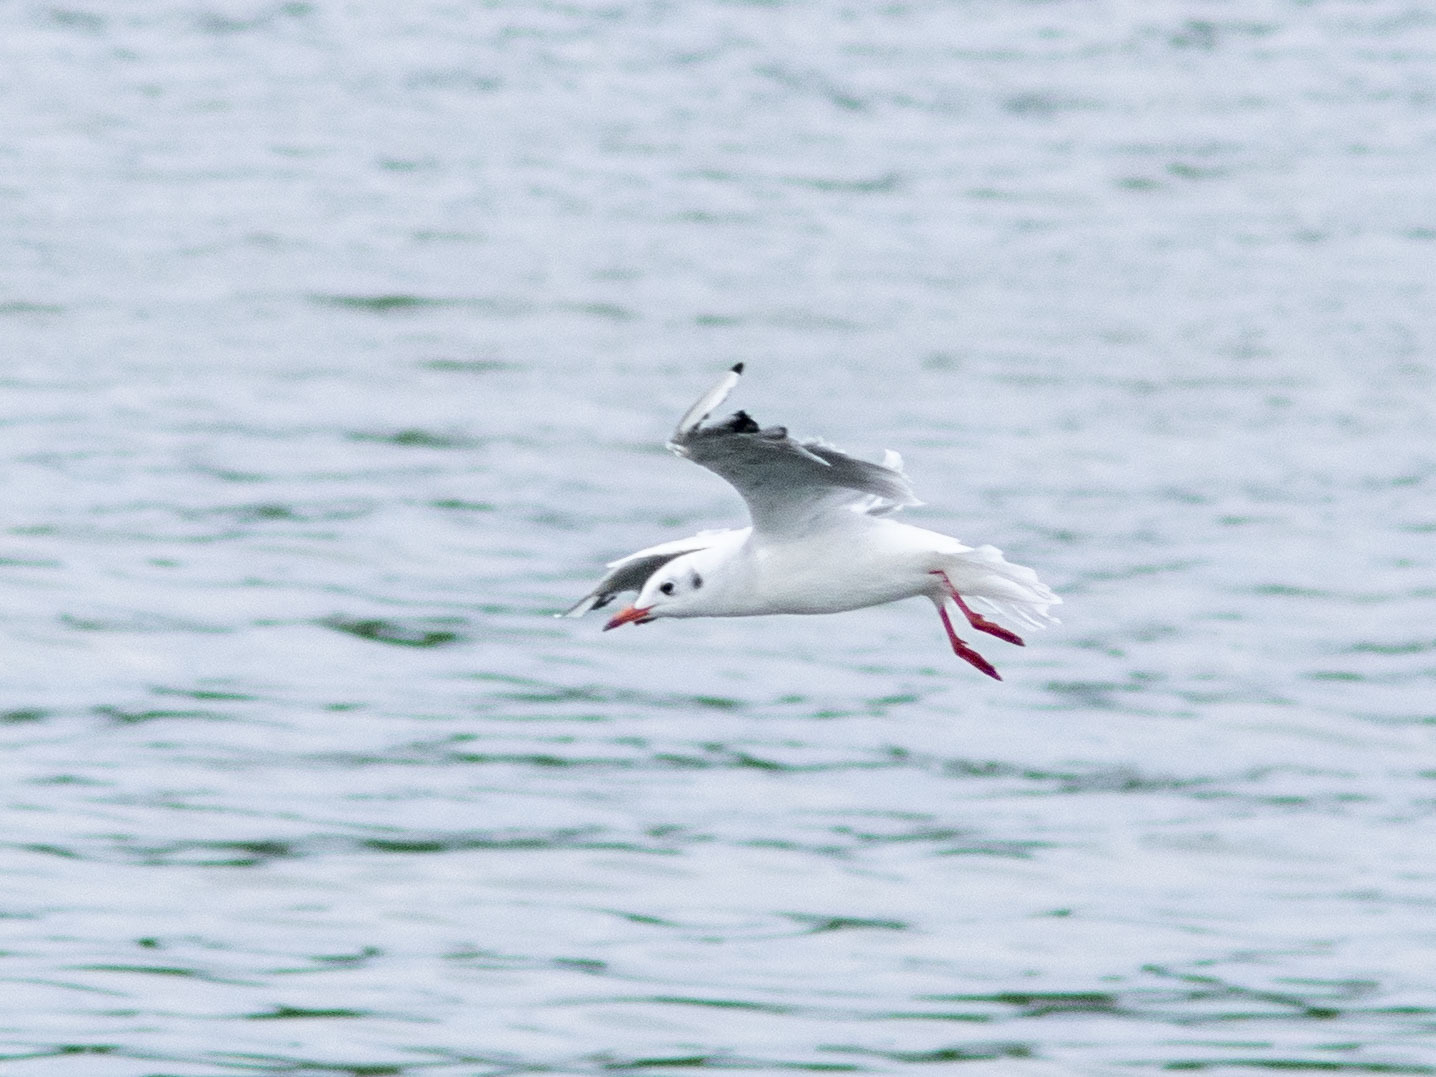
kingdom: Animalia
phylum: Chordata
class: Aves
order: Charadriiformes
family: Laridae
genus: Chroicocephalus
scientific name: Chroicocephalus ridibundus
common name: Black-headed gull
